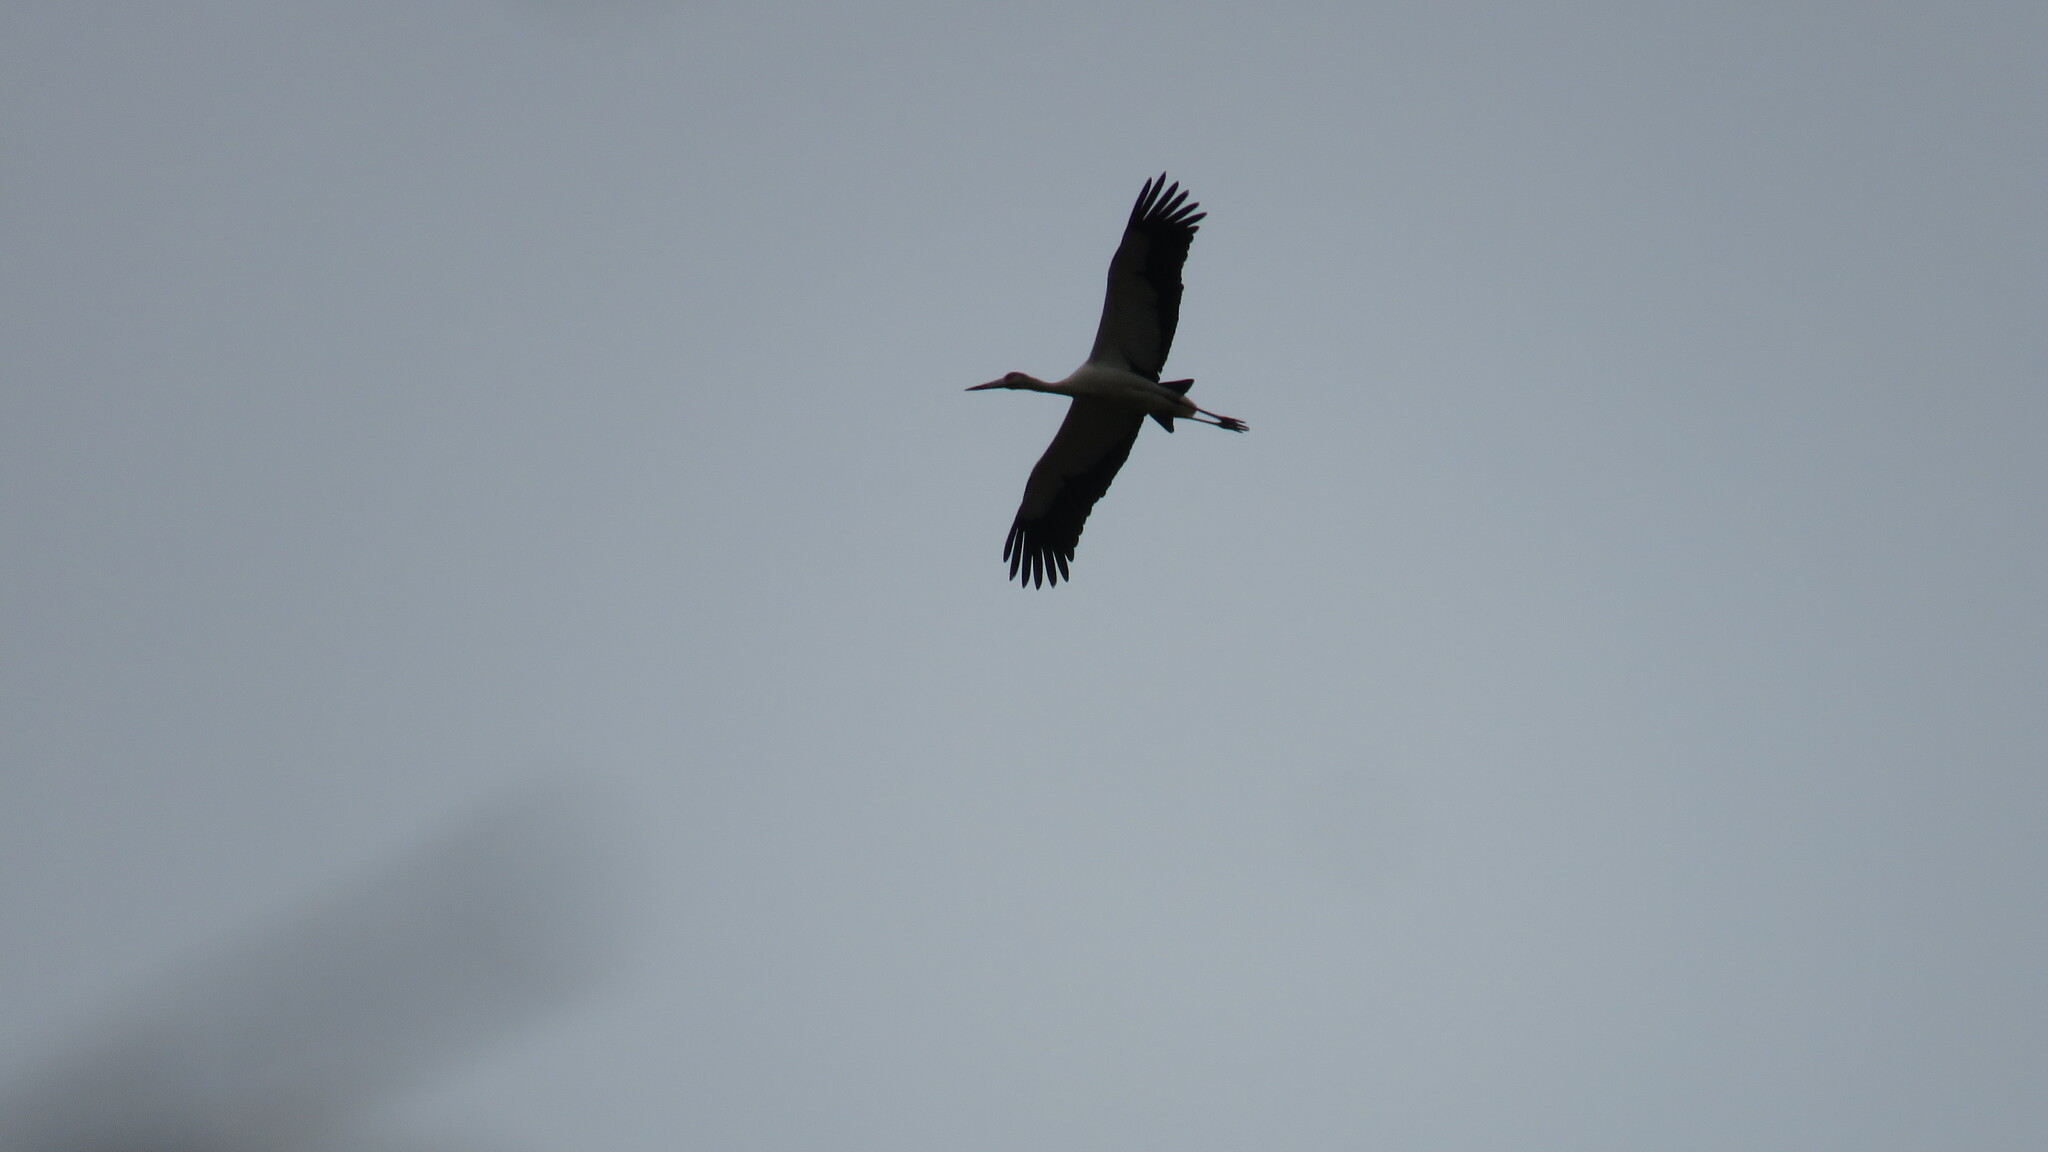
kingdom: Animalia
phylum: Chordata
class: Aves
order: Ciconiiformes
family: Ciconiidae
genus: Ciconia
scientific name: Ciconia maguari
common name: Maguari stork
